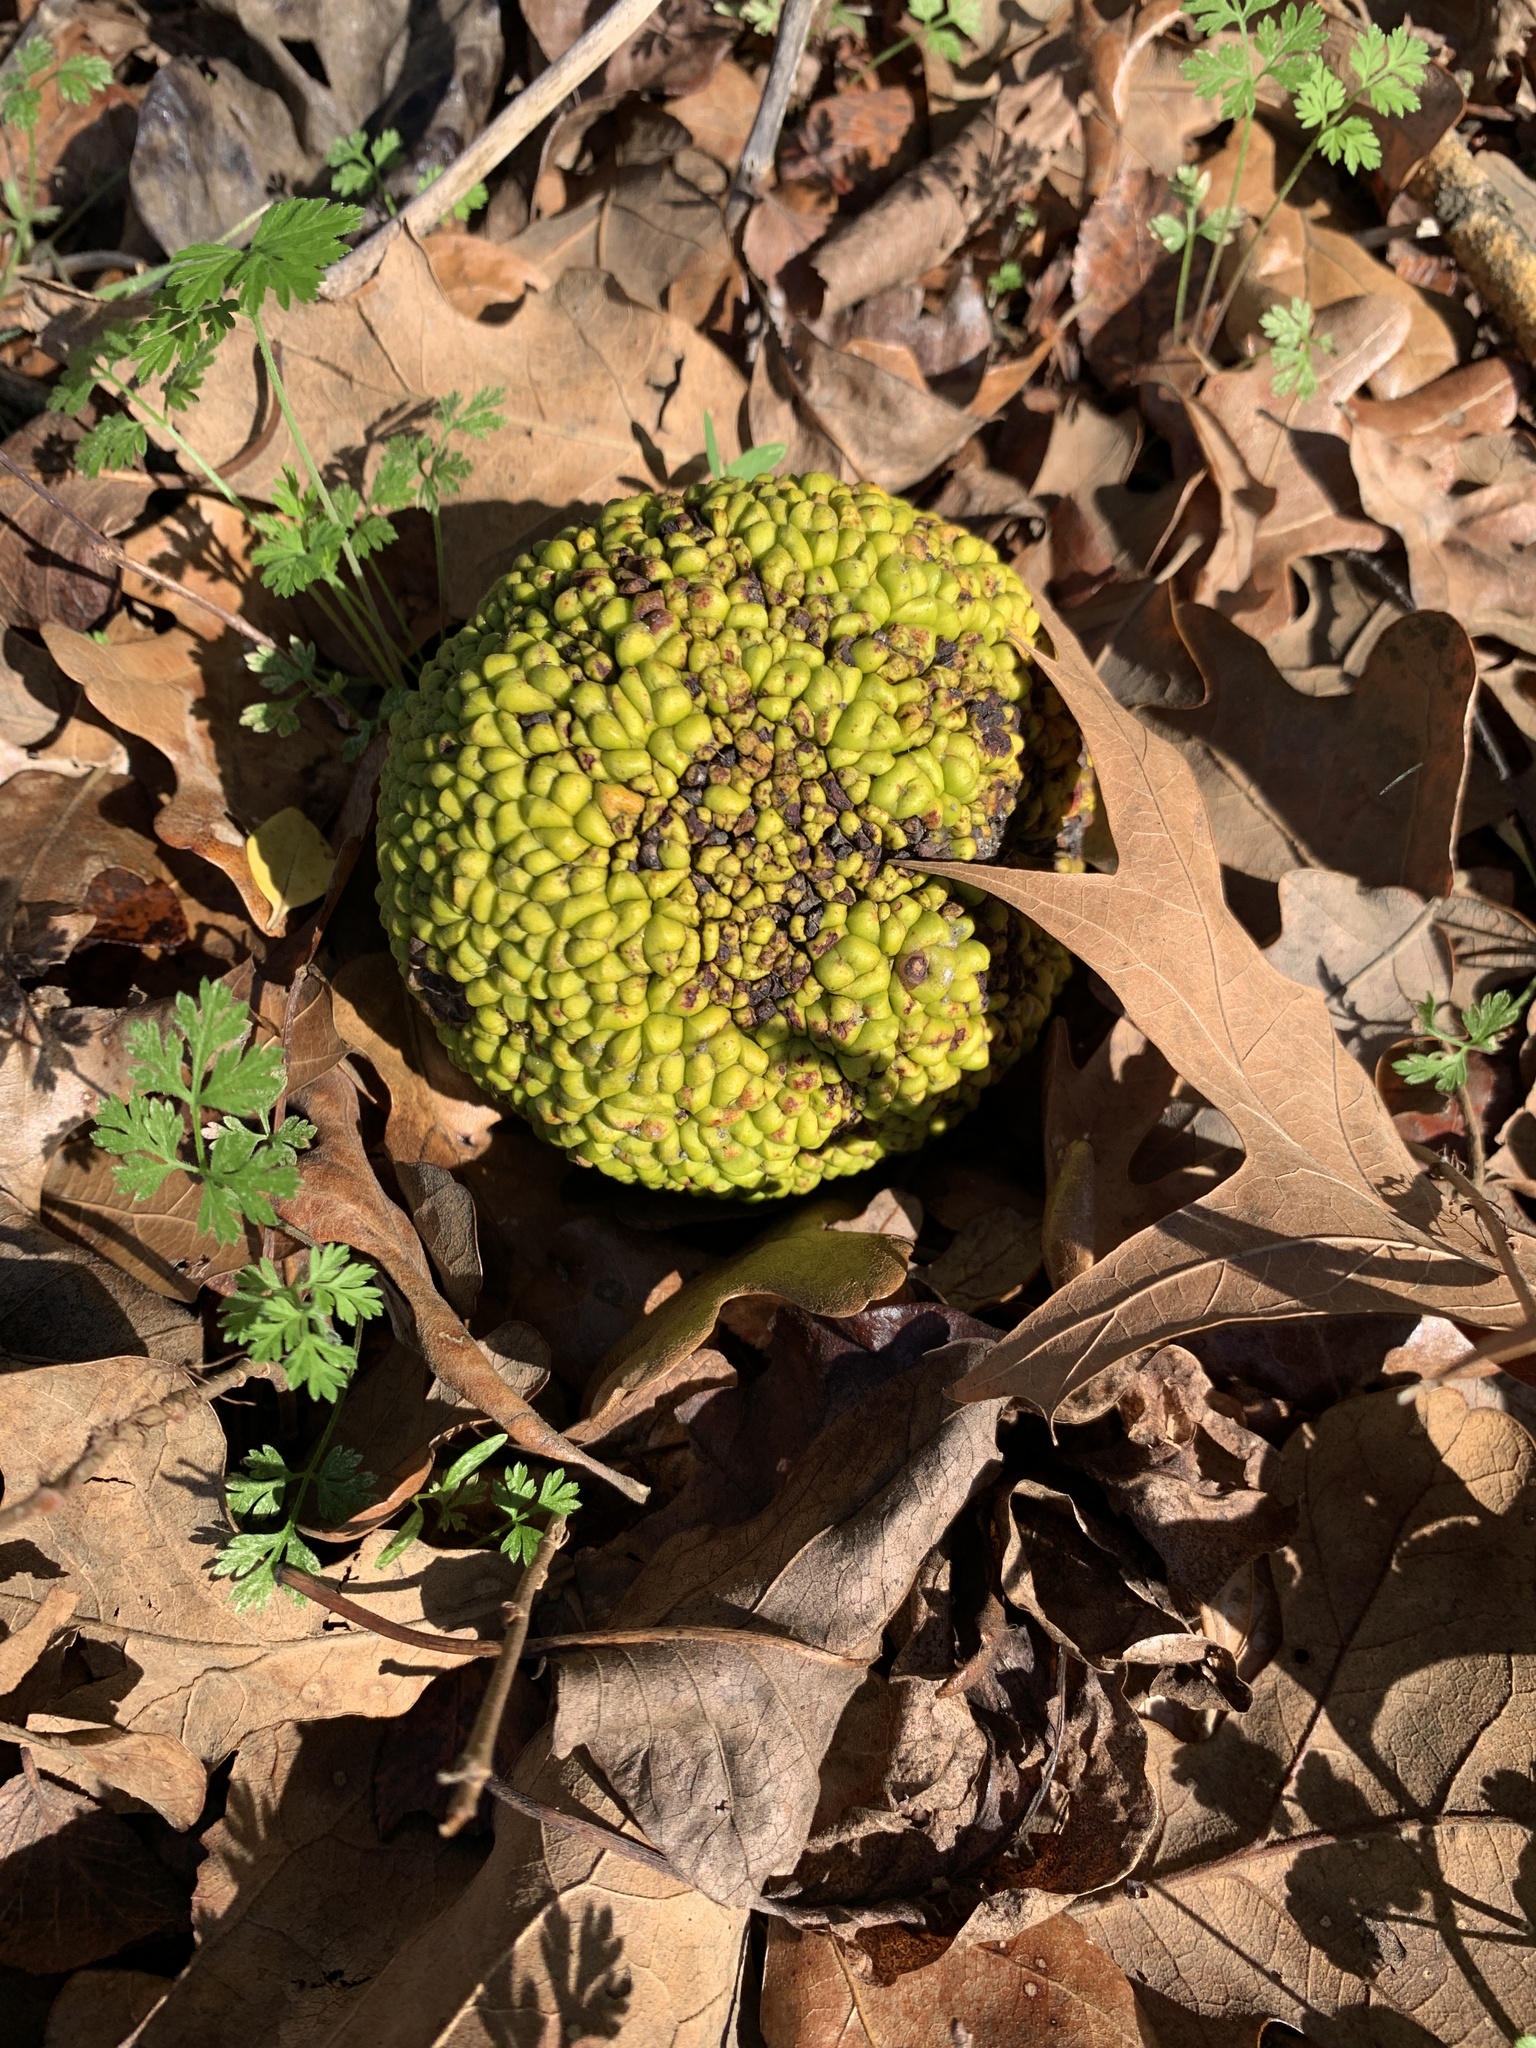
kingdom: Plantae
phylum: Tracheophyta
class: Magnoliopsida
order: Rosales
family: Moraceae
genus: Maclura
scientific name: Maclura pomifera
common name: Osage-orange
